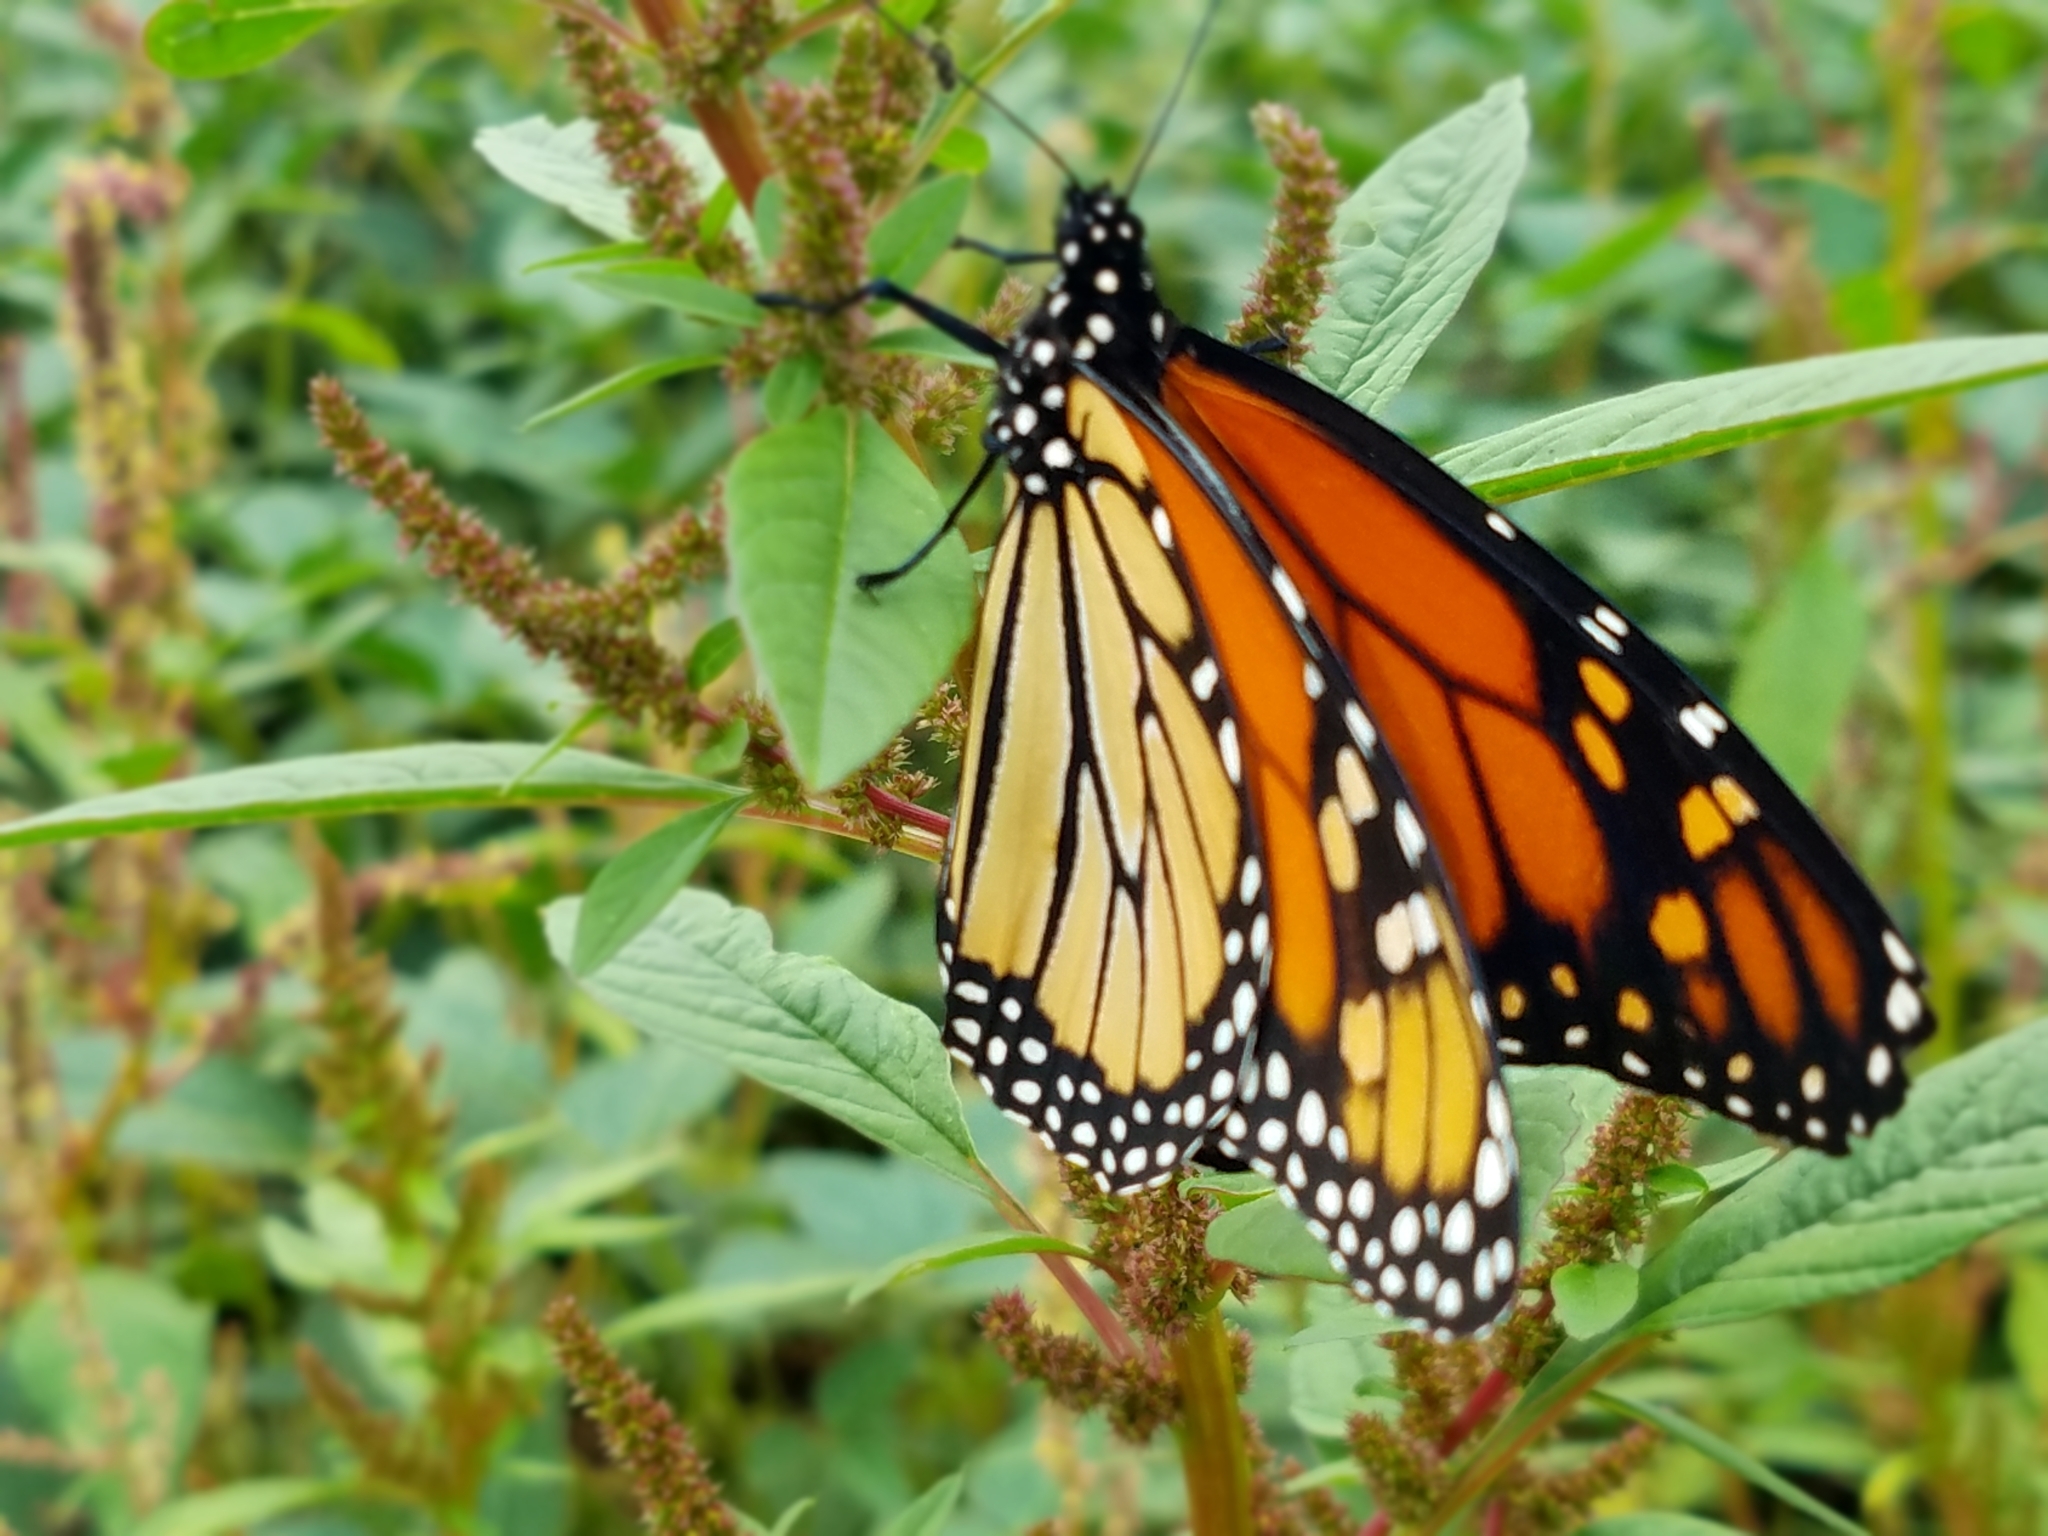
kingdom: Animalia
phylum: Arthropoda
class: Insecta
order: Lepidoptera
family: Nymphalidae
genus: Danaus
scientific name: Danaus plexippus
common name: Monarch
